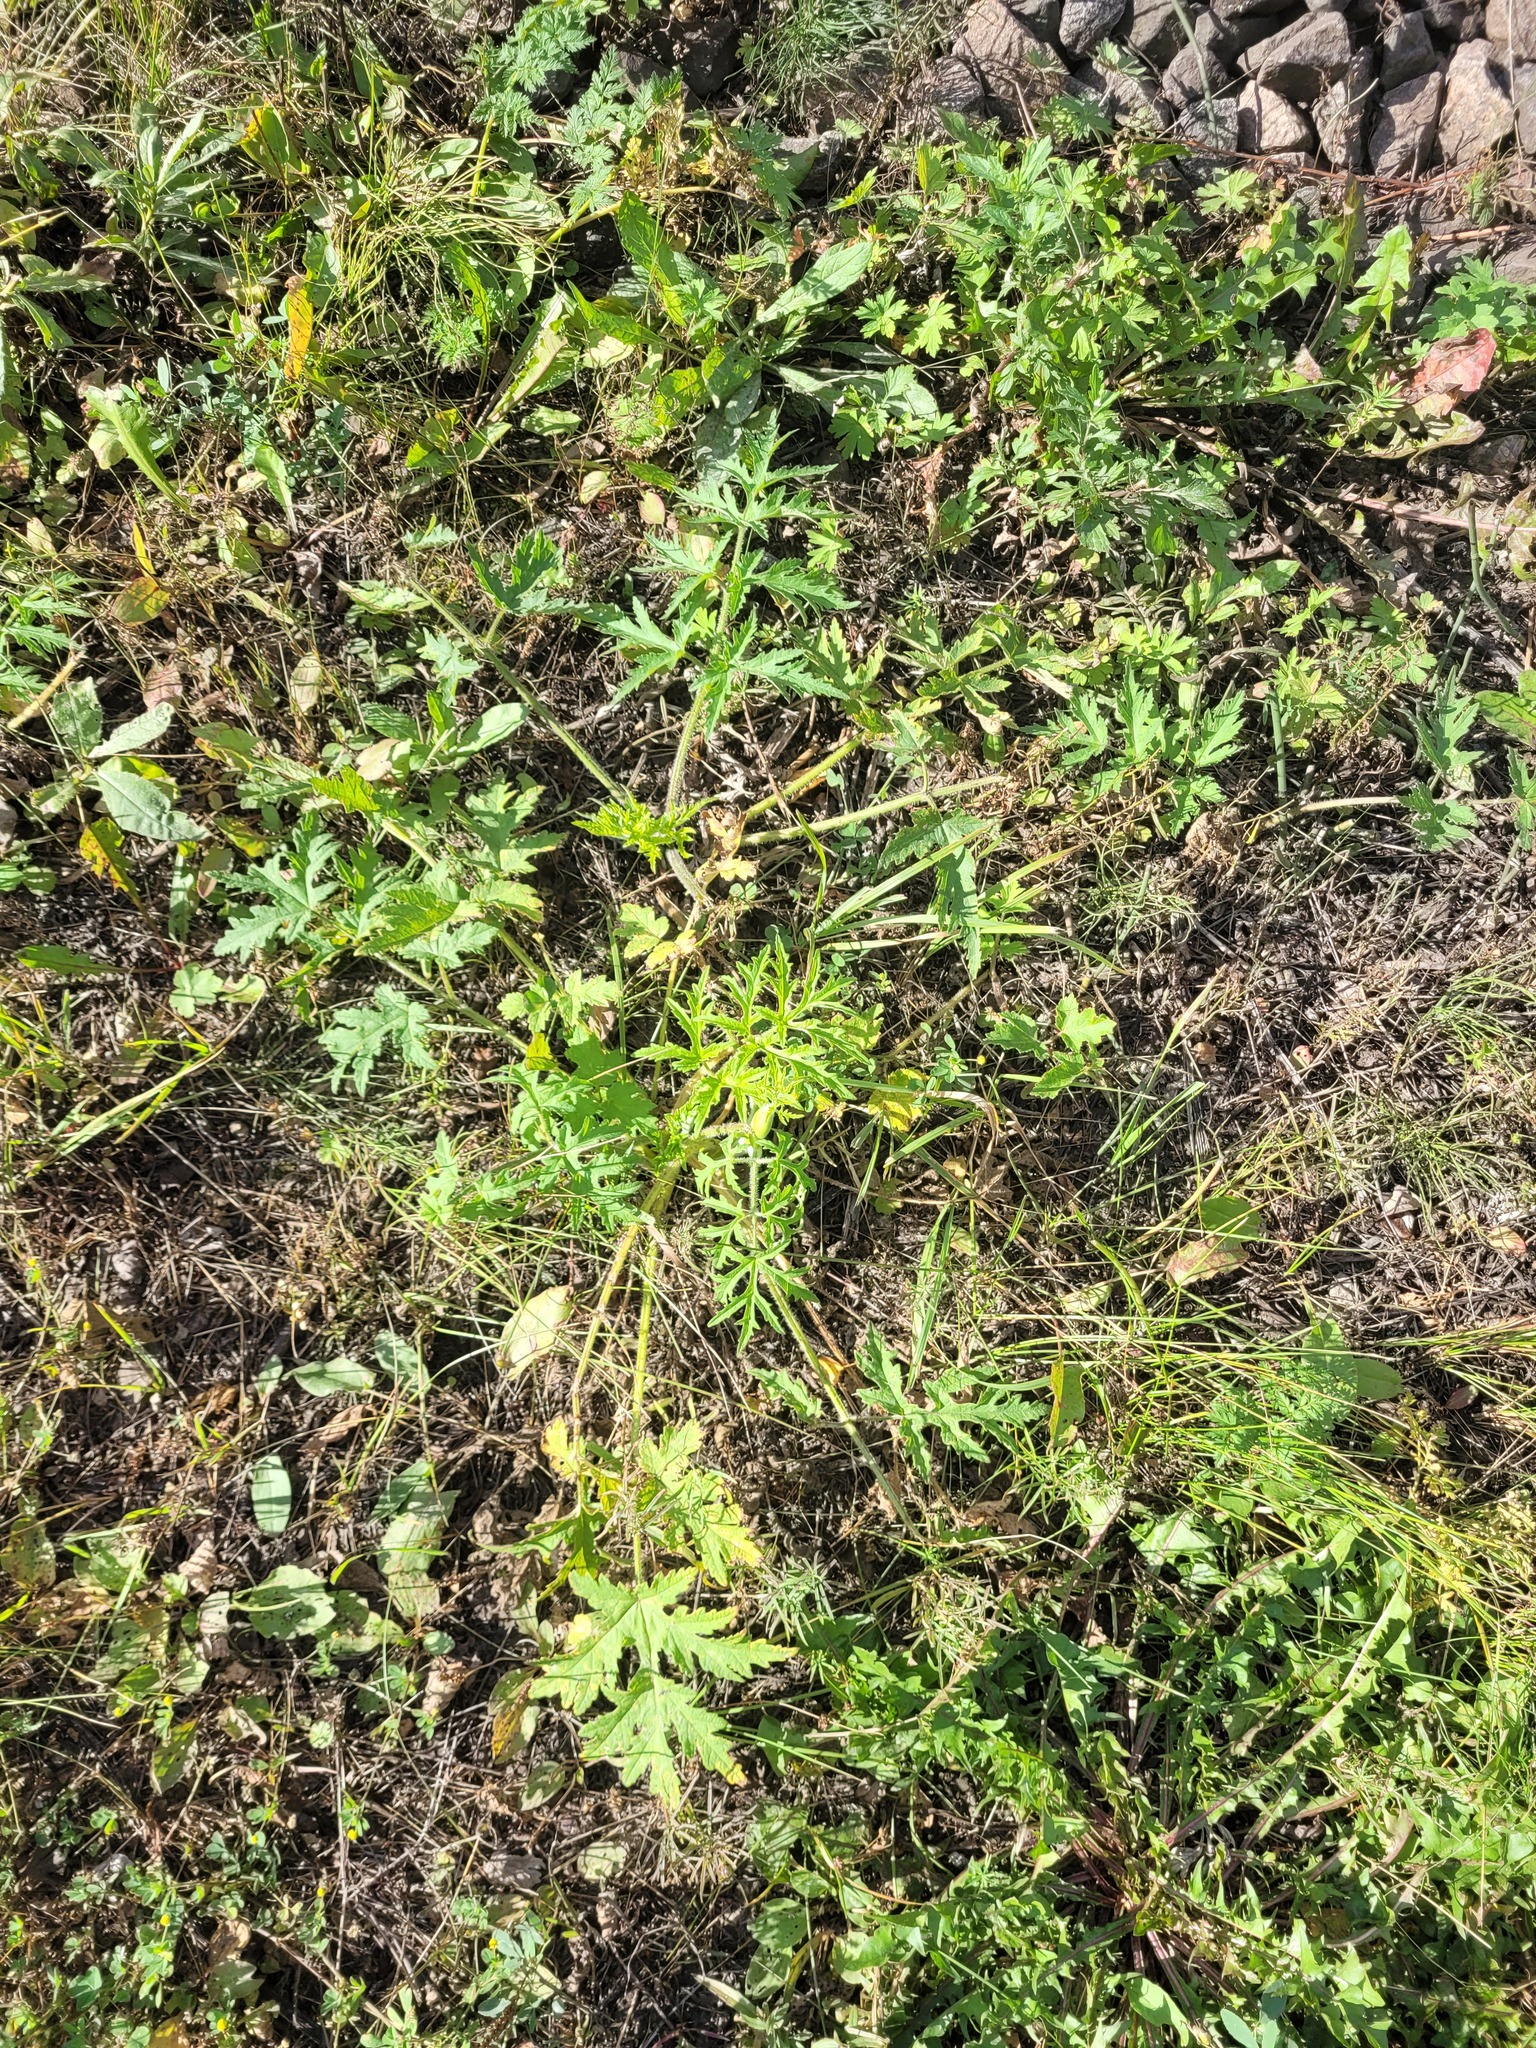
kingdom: Plantae
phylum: Tracheophyta
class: Magnoliopsida
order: Apiales
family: Apiaceae
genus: Heracleum
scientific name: Heracleum sphondylium
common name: Hogweed
